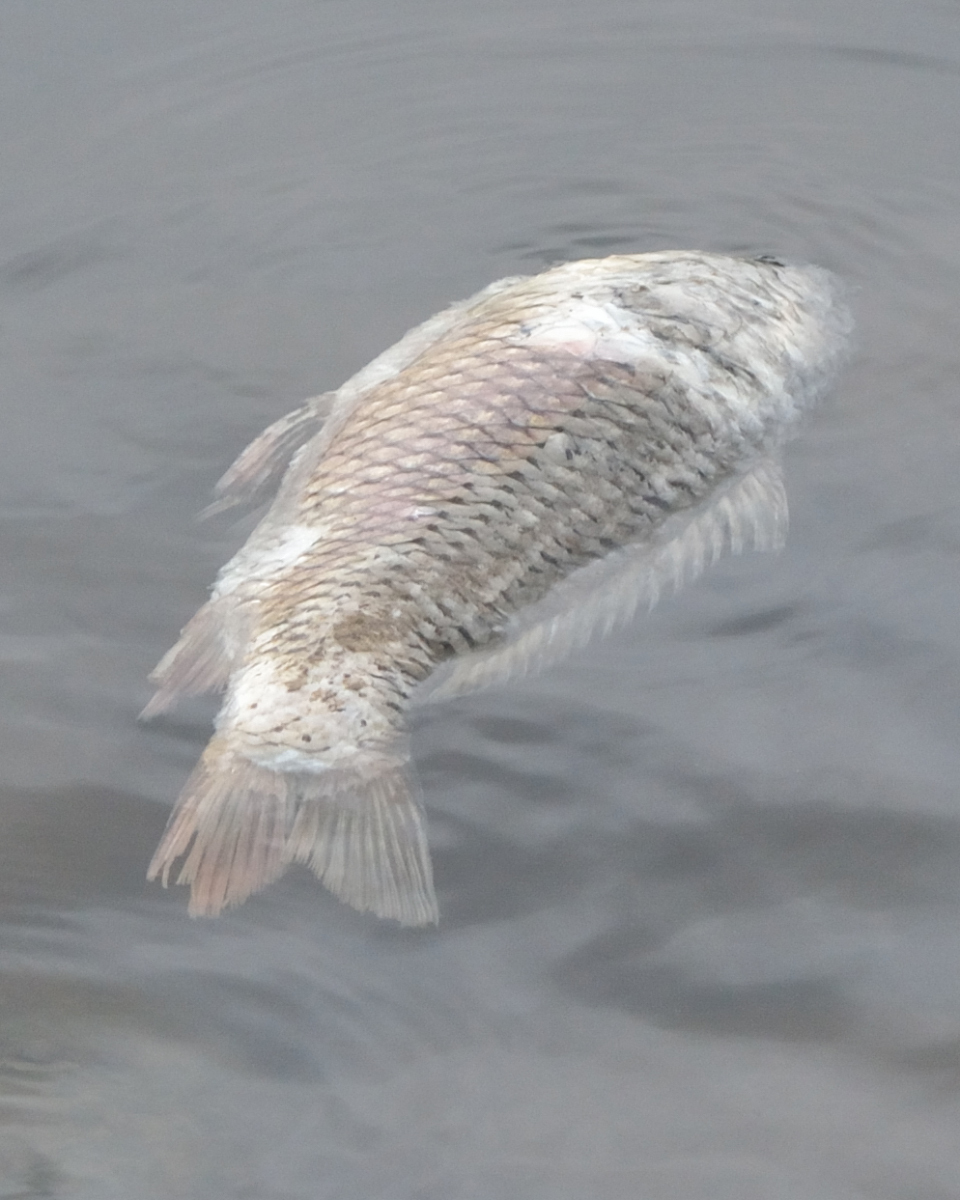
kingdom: Animalia
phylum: Chordata
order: Cypriniformes
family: Cyprinidae
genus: Cyprinus
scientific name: Cyprinus carpio
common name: Common carp
